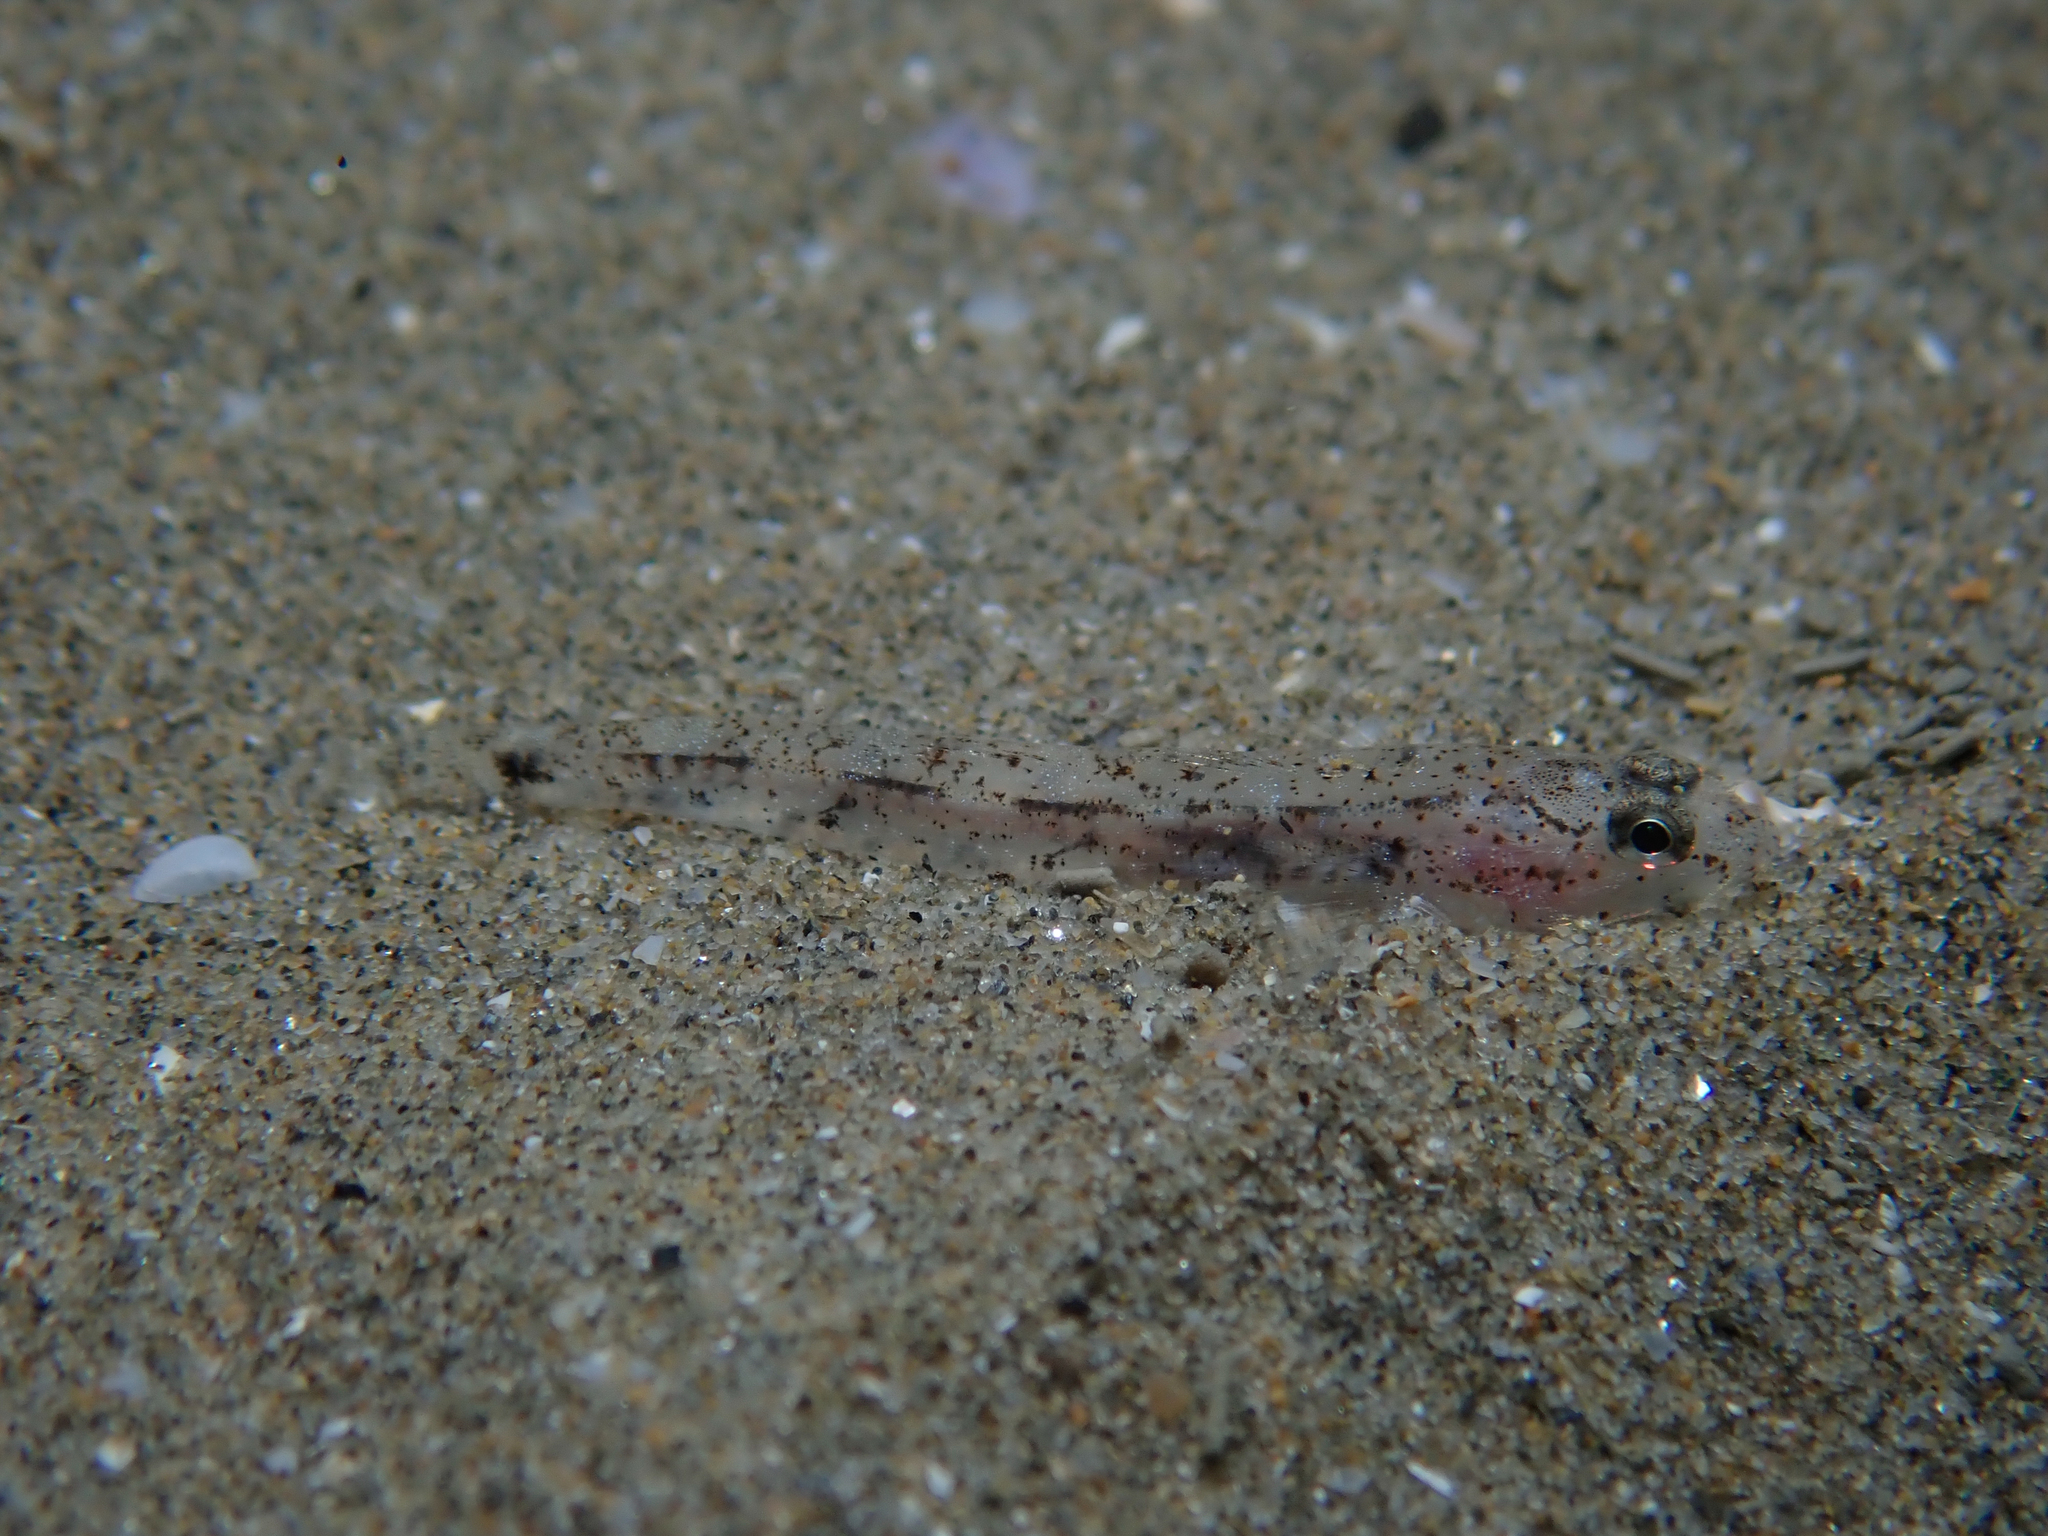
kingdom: Animalia
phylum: Chordata
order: Perciformes
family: Gobiidae
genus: Pomatoschistus
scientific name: Pomatoschistus marmoratus
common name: Marbled goby
